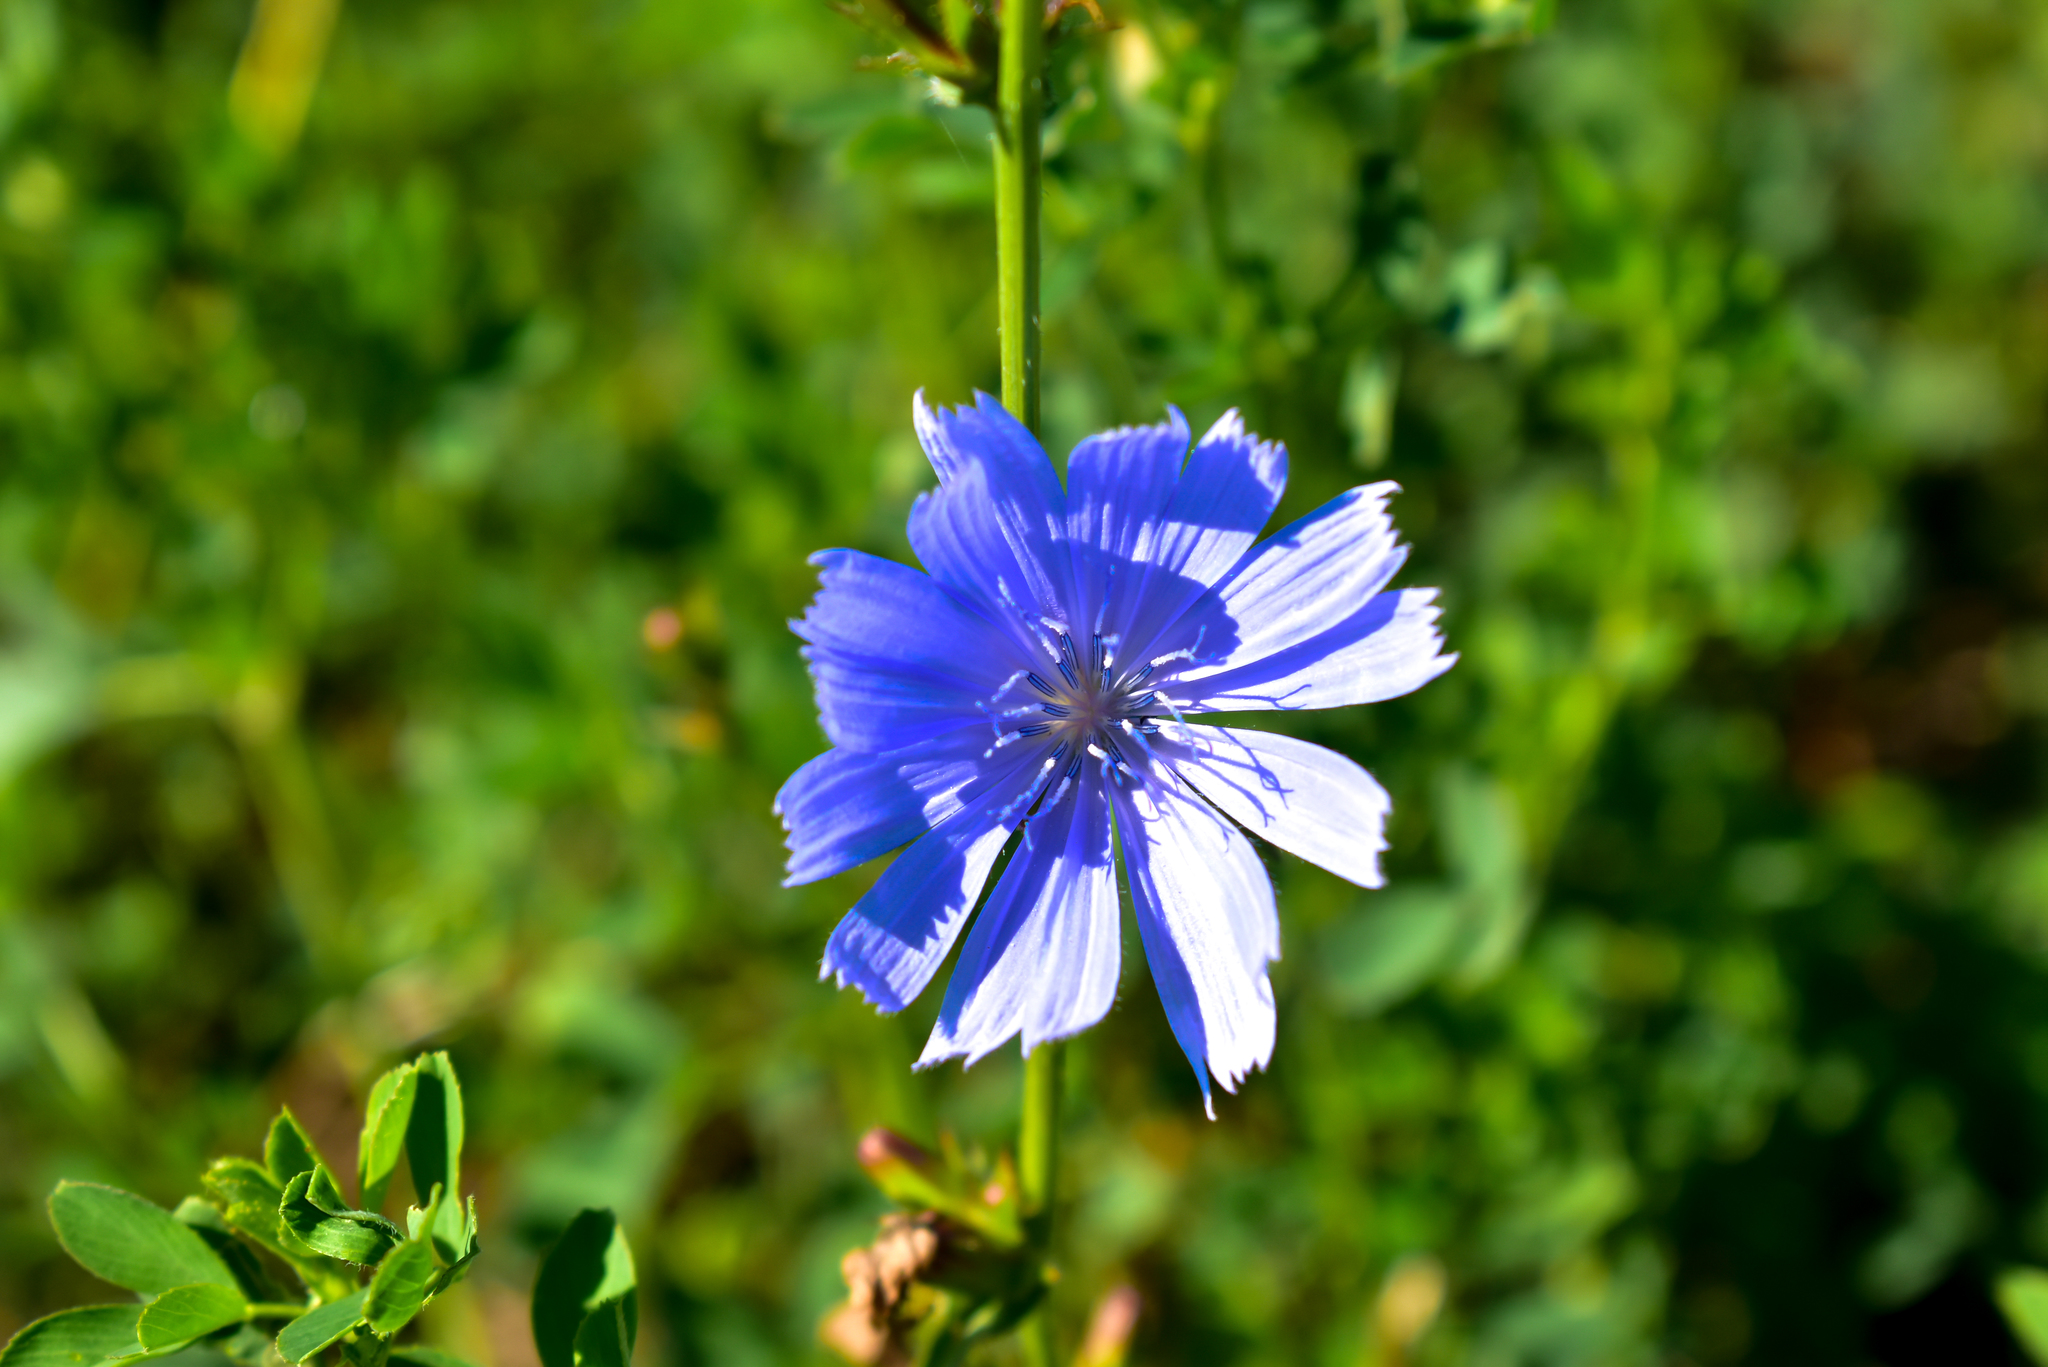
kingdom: Plantae
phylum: Tracheophyta
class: Magnoliopsida
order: Asterales
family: Asteraceae
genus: Cichorium
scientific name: Cichorium intybus
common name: Chicory
